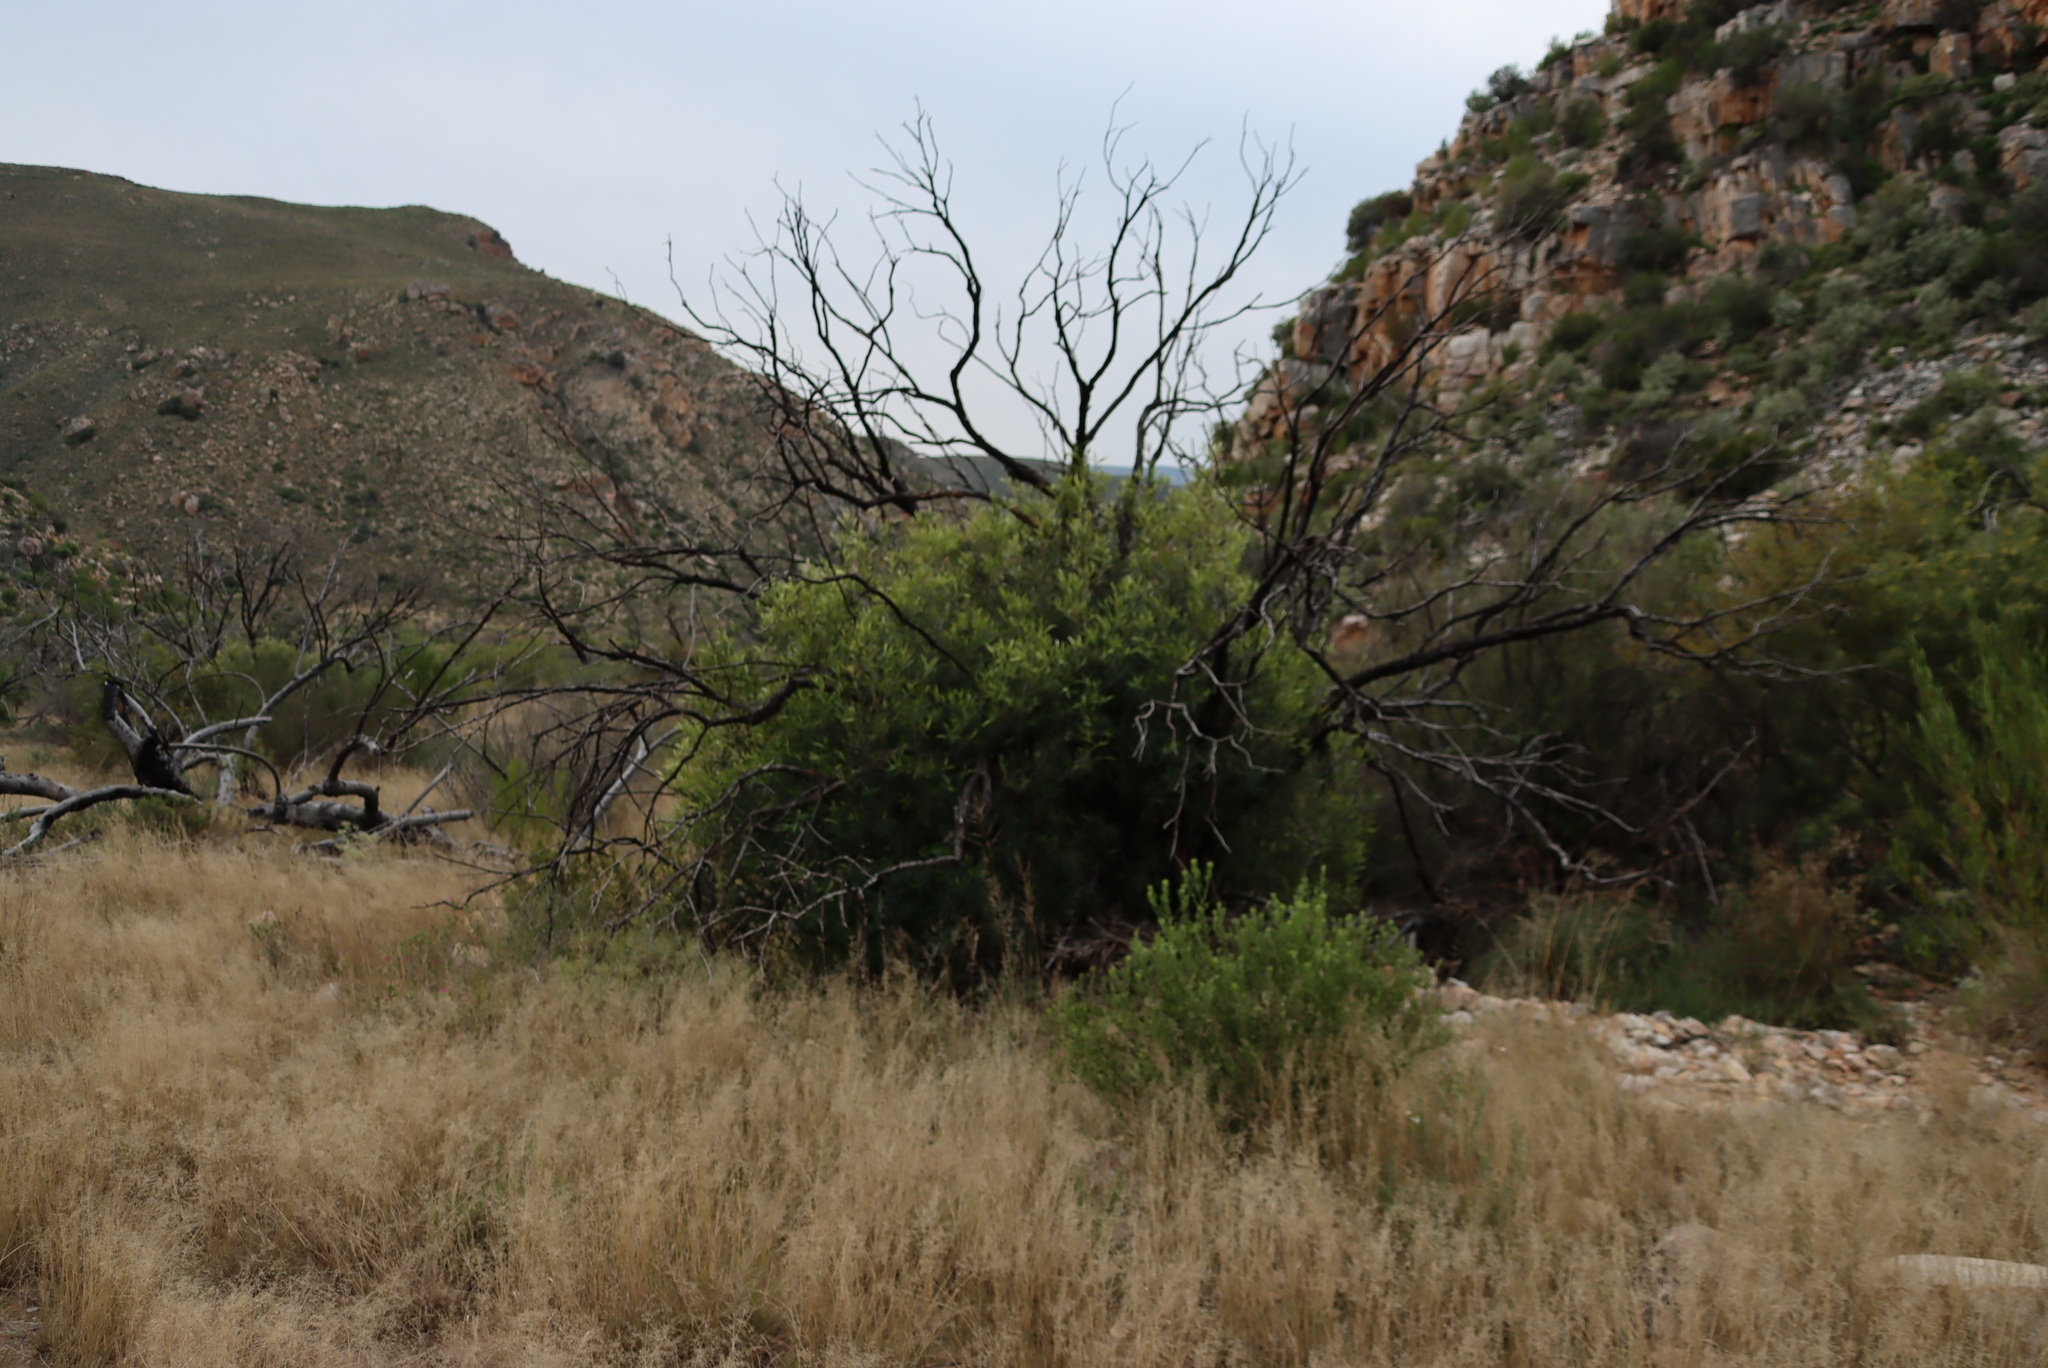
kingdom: Plantae
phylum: Tracheophyta
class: Magnoliopsida
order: Malpighiales
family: Achariaceae
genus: Kiggelaria
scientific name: Kiggelaria africana
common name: Wild peach
